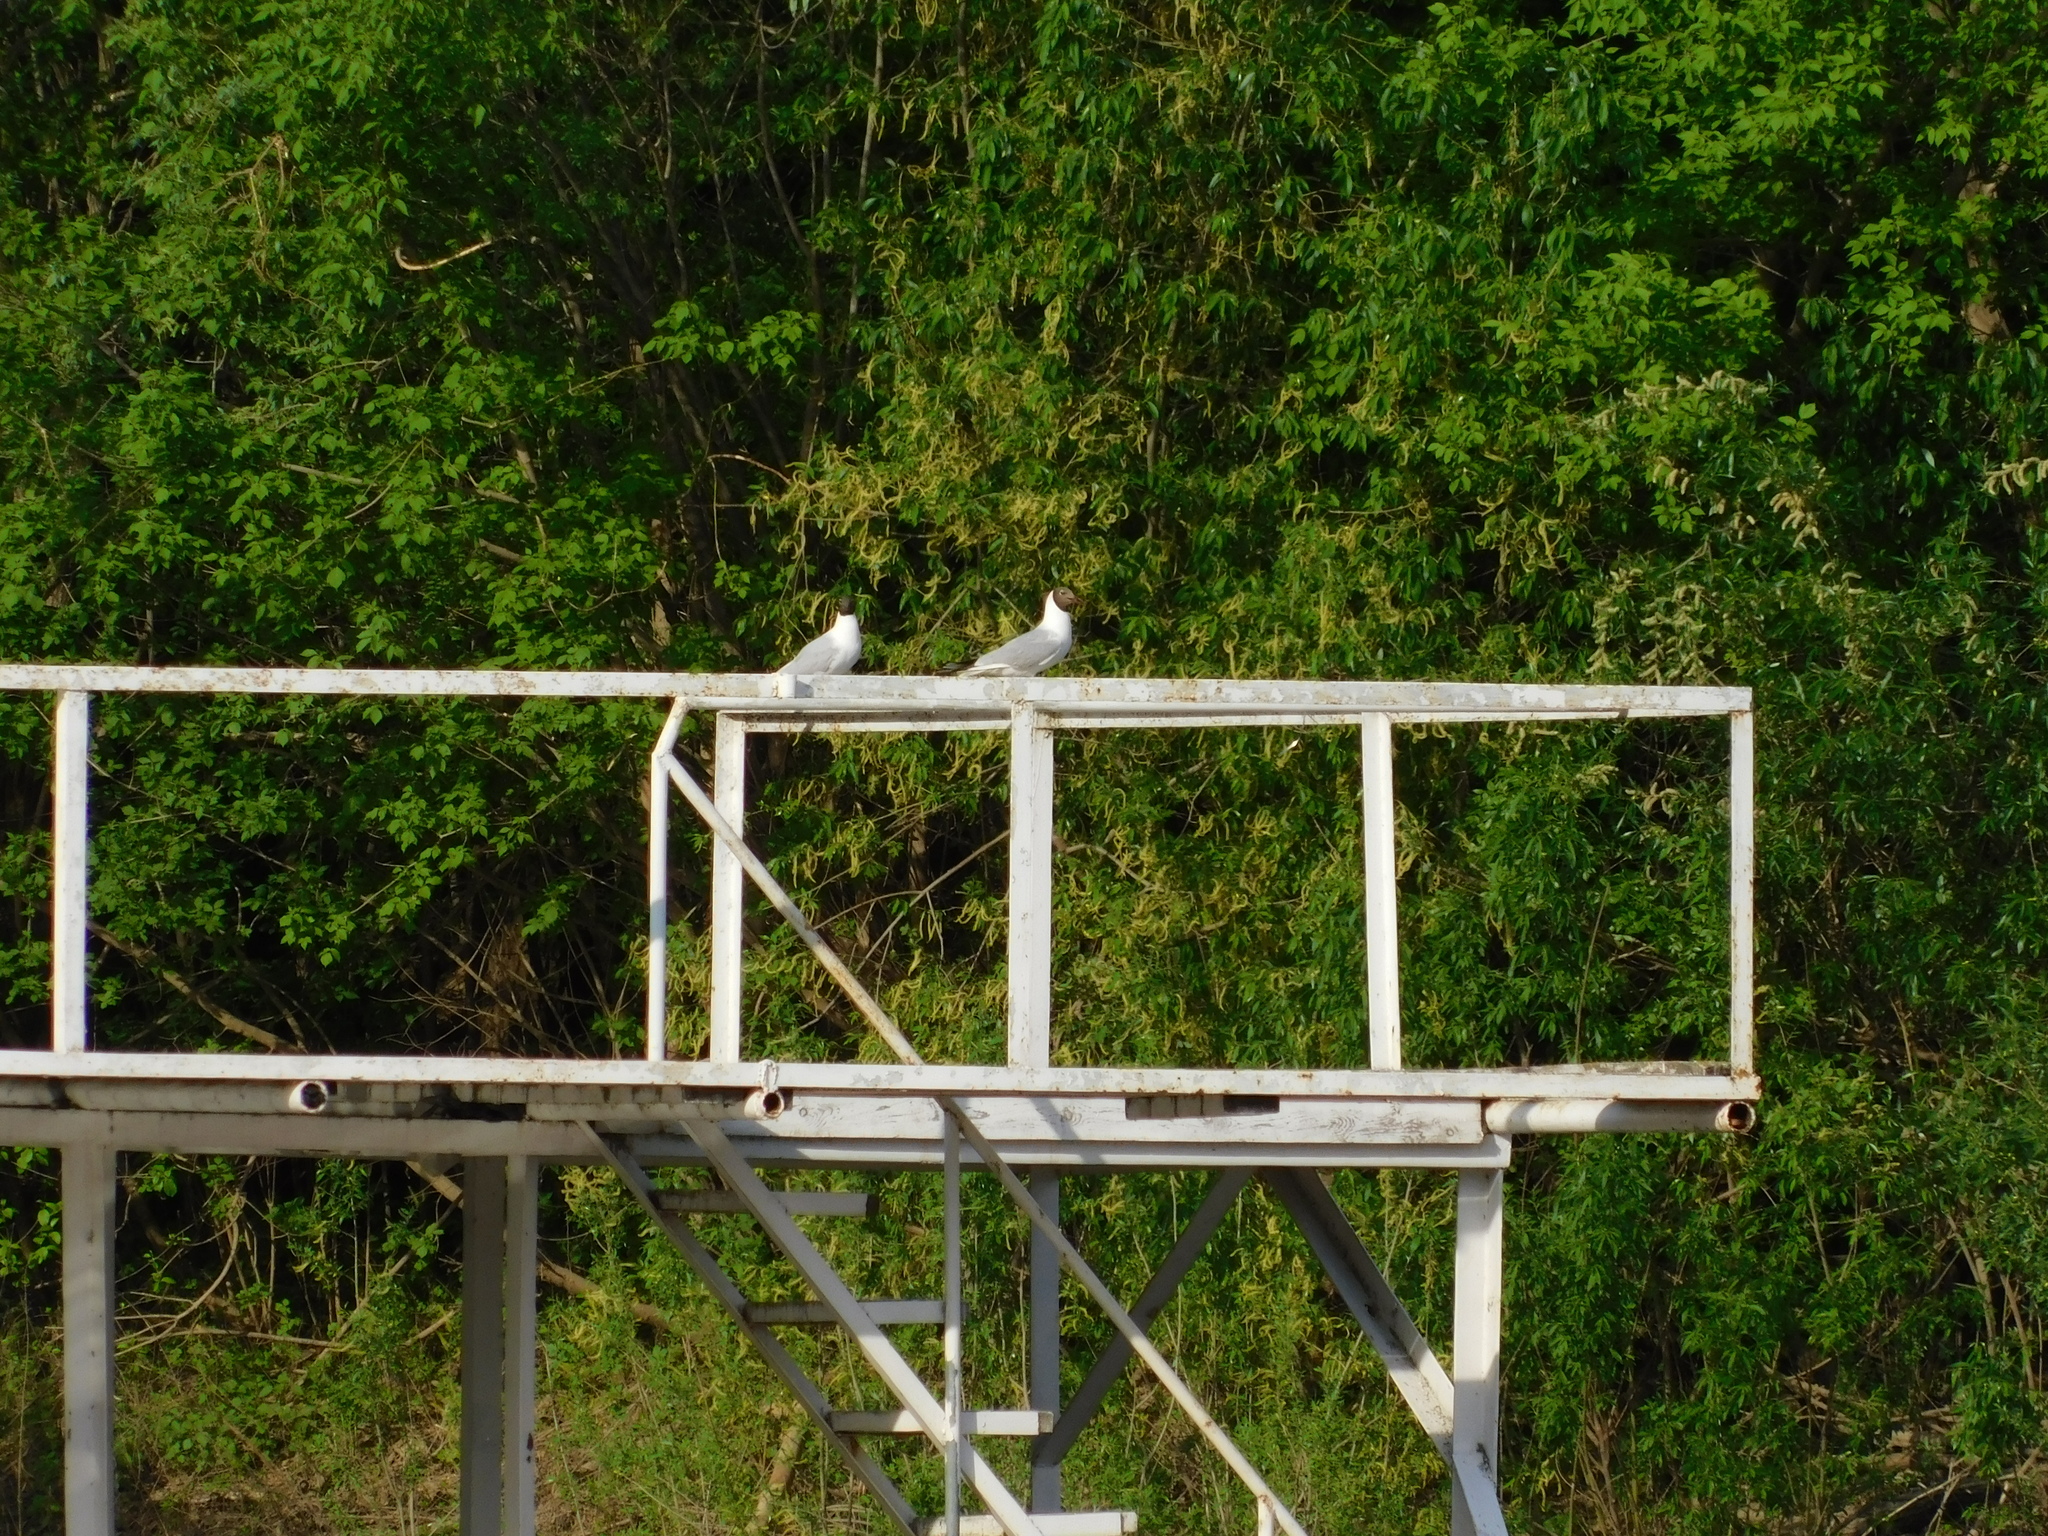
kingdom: Animalia
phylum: Chordata
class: Aves
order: Charadriiformes
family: Laridae
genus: Chroicocephalus
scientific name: Chroicocephalus ridibundus
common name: Black-headed gull
